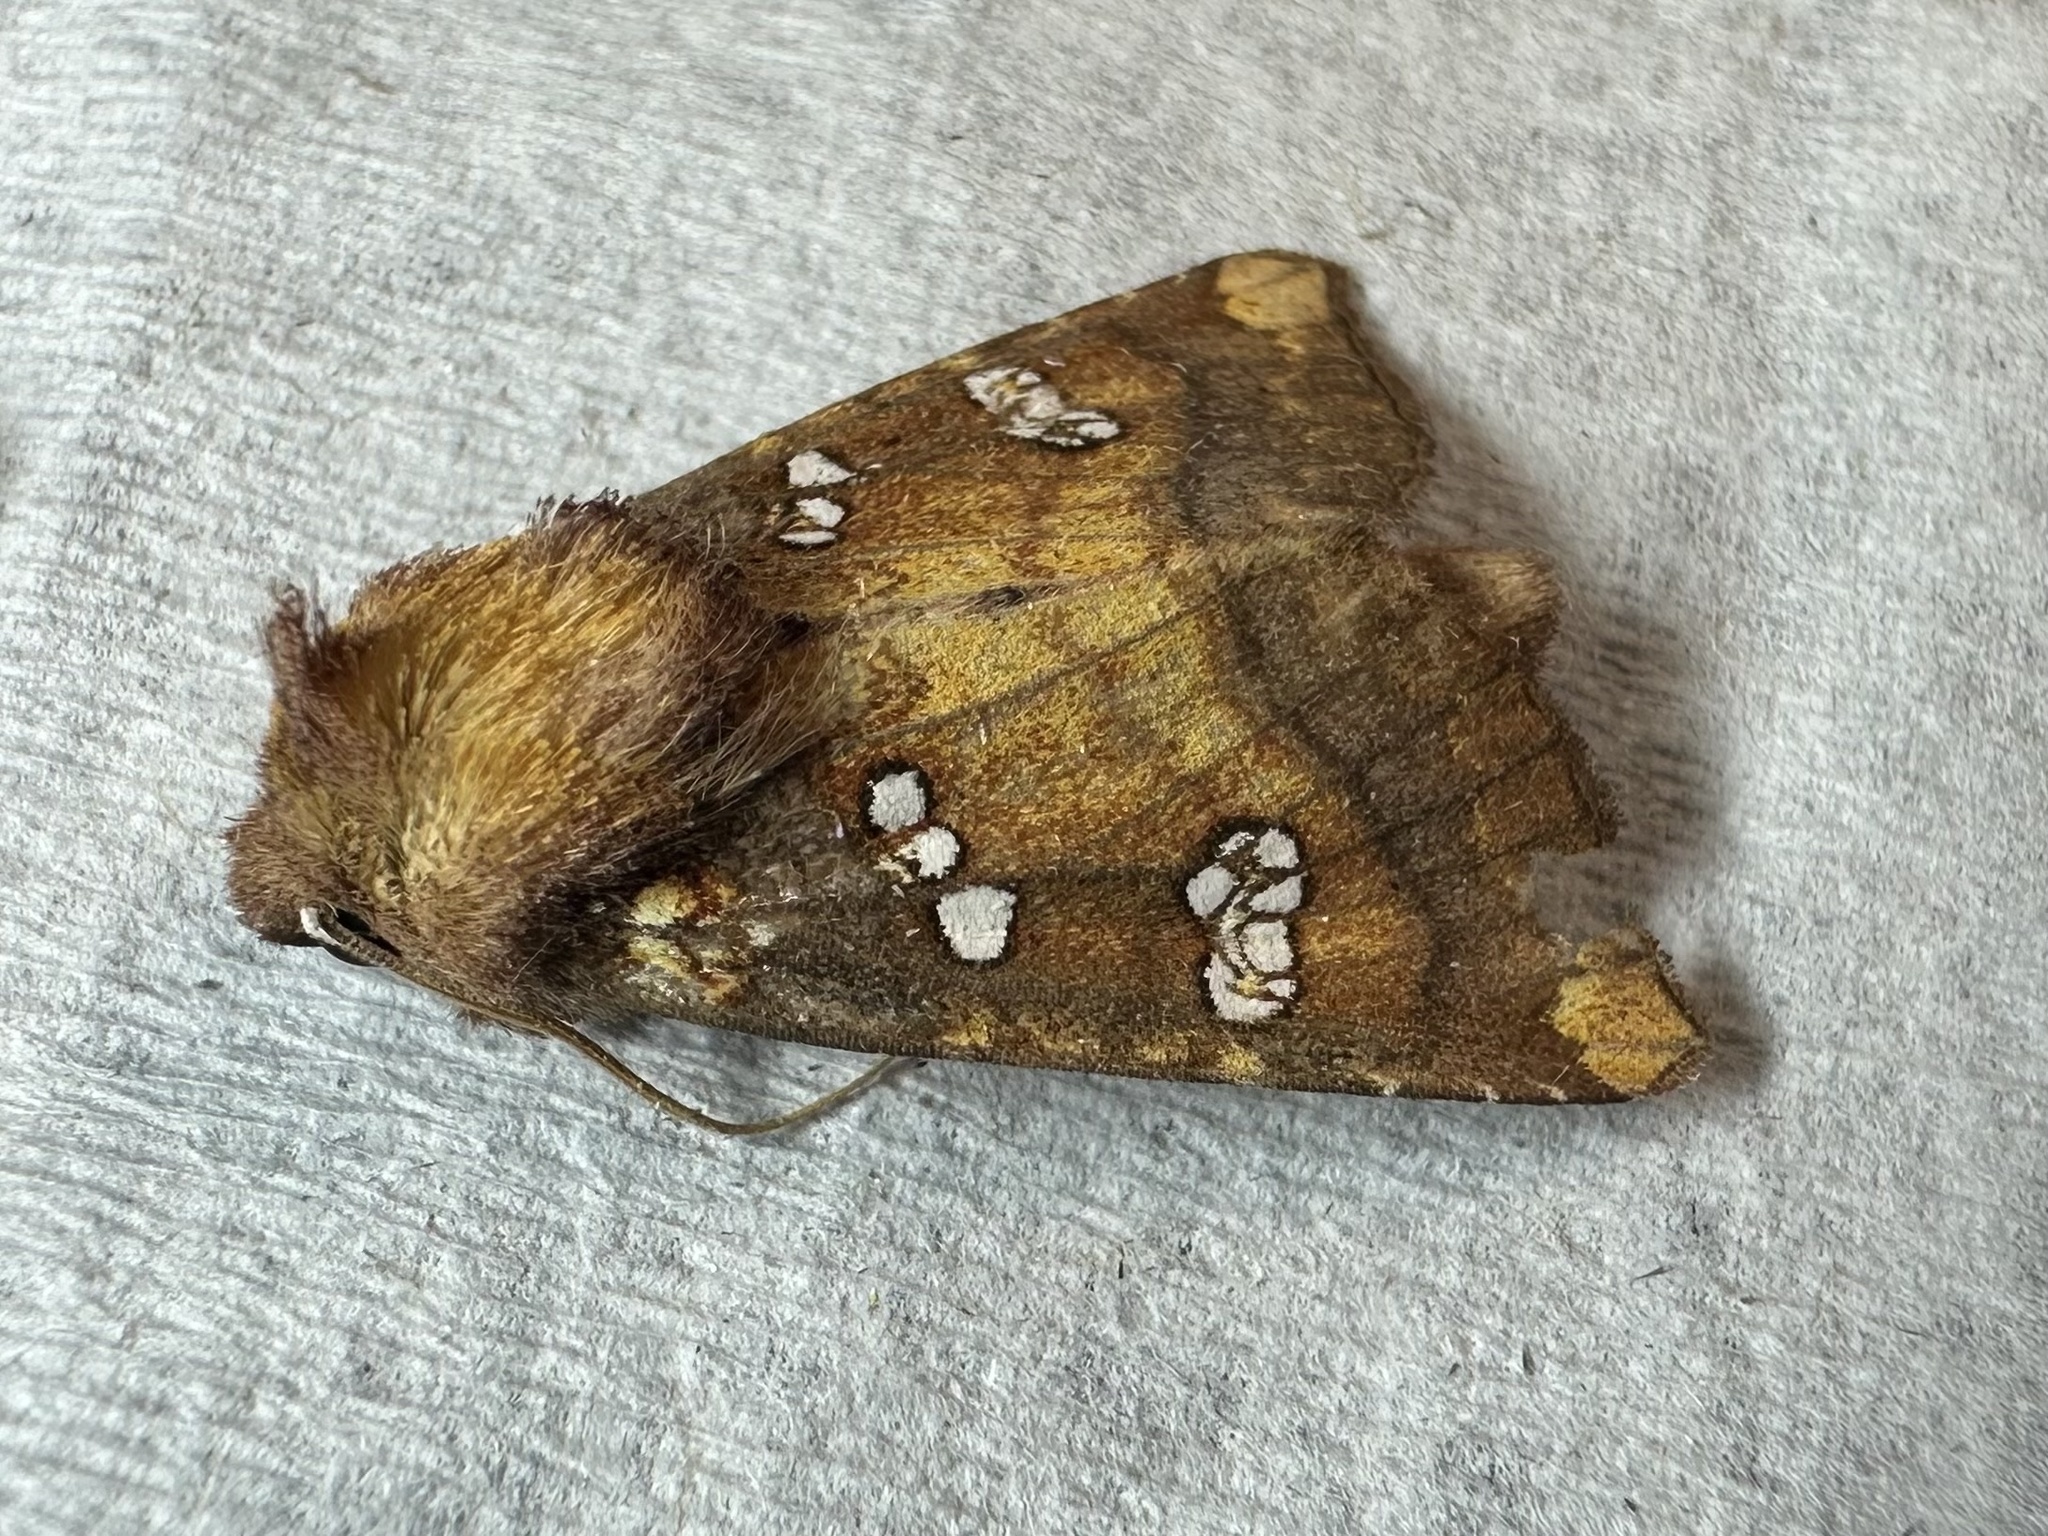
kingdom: Animalia
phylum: Arthropoda
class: Insecta
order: Lepidoptera
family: Noctuidae
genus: Papaipema
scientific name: Papaipema baptisiae
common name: Wild indigo borer moth
